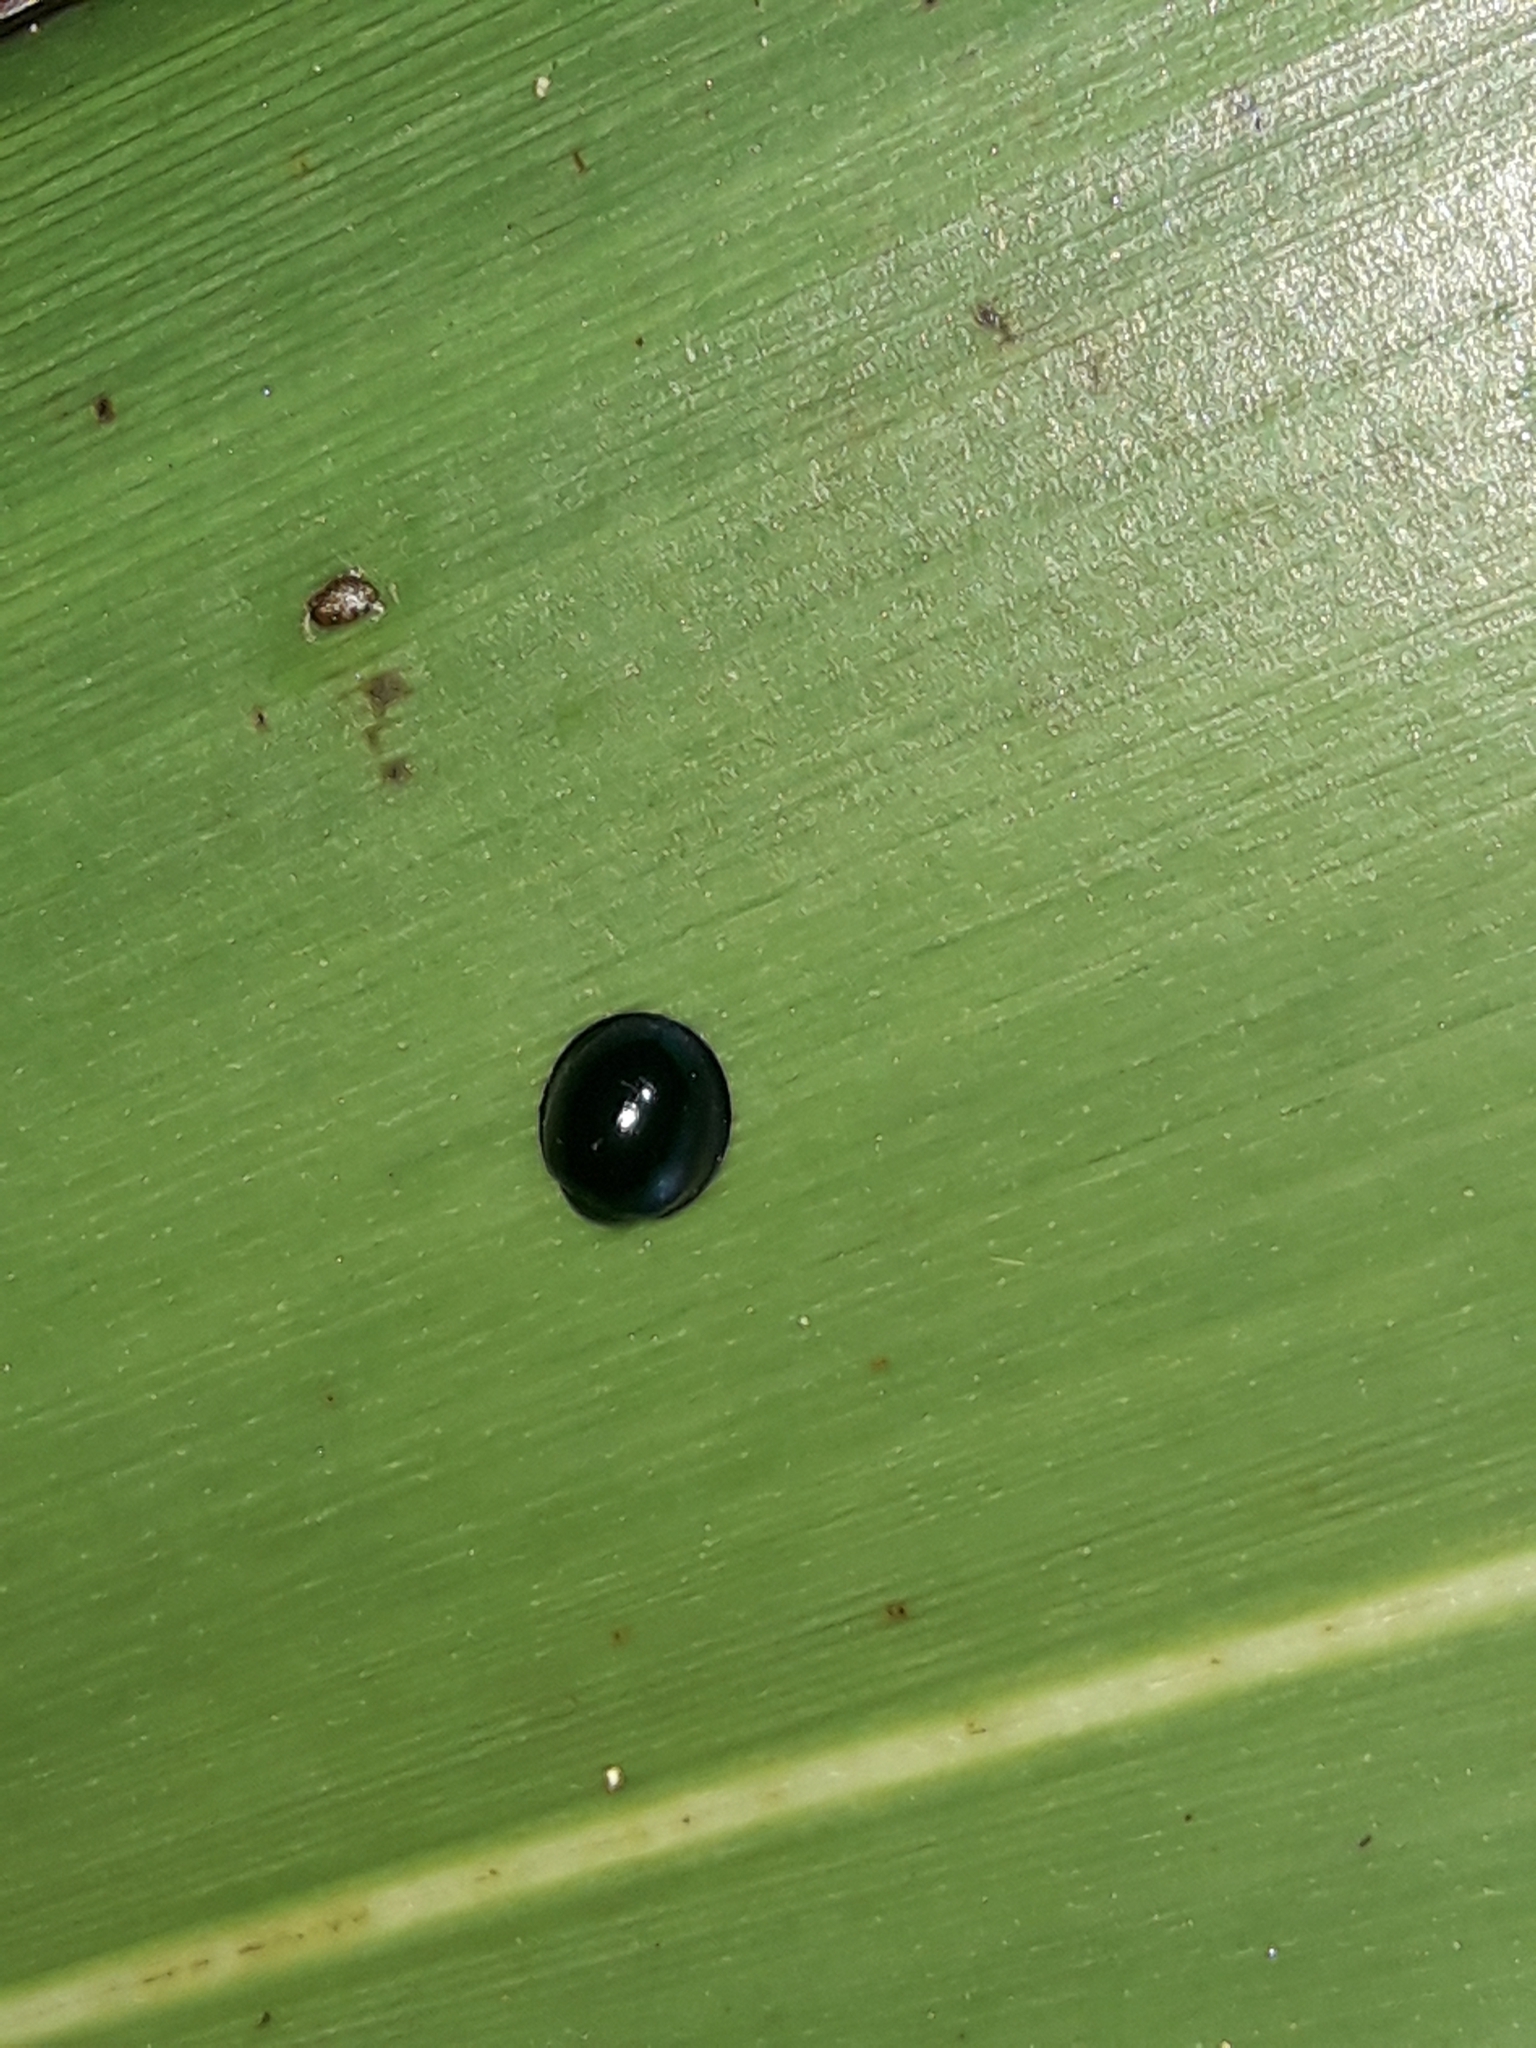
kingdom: Animalia
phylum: Arthropoda
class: Insecta
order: Coleoptera
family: Coccinellidae
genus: Halmus
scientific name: Halmus chalybeus
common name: Steel blue ladybird beetle
